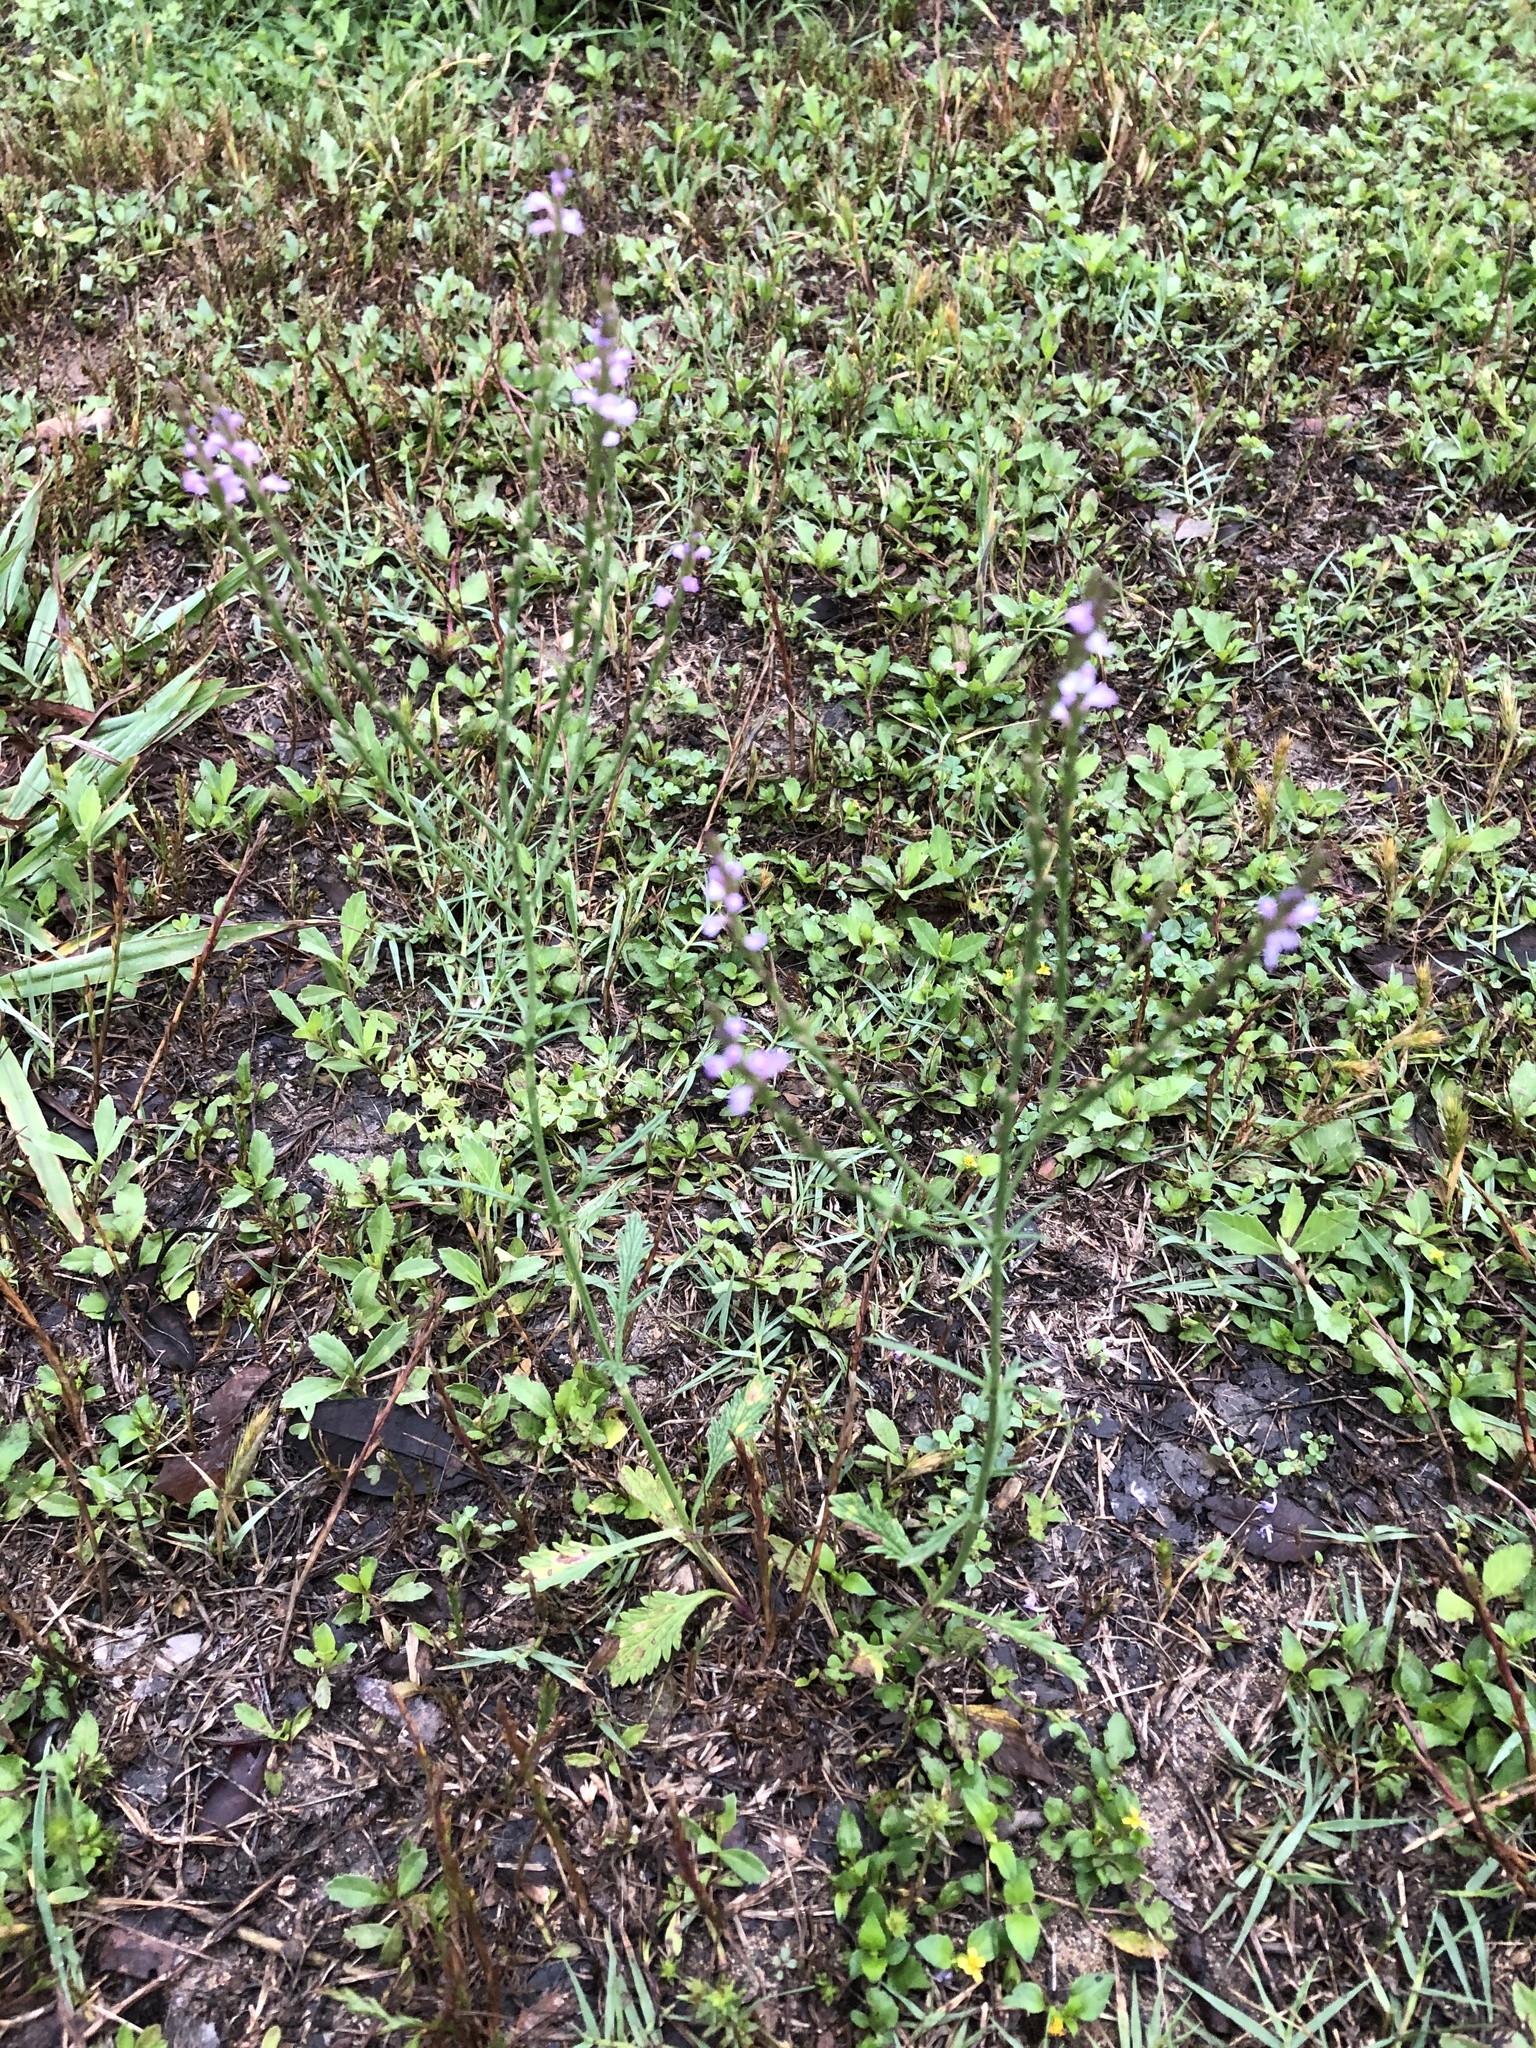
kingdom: Plantae
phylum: Tracheophyta
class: Magnoliopsida
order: Lamiales
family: Verbenaceae
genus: Verbena
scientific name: Verbena halei
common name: Texas vervain
